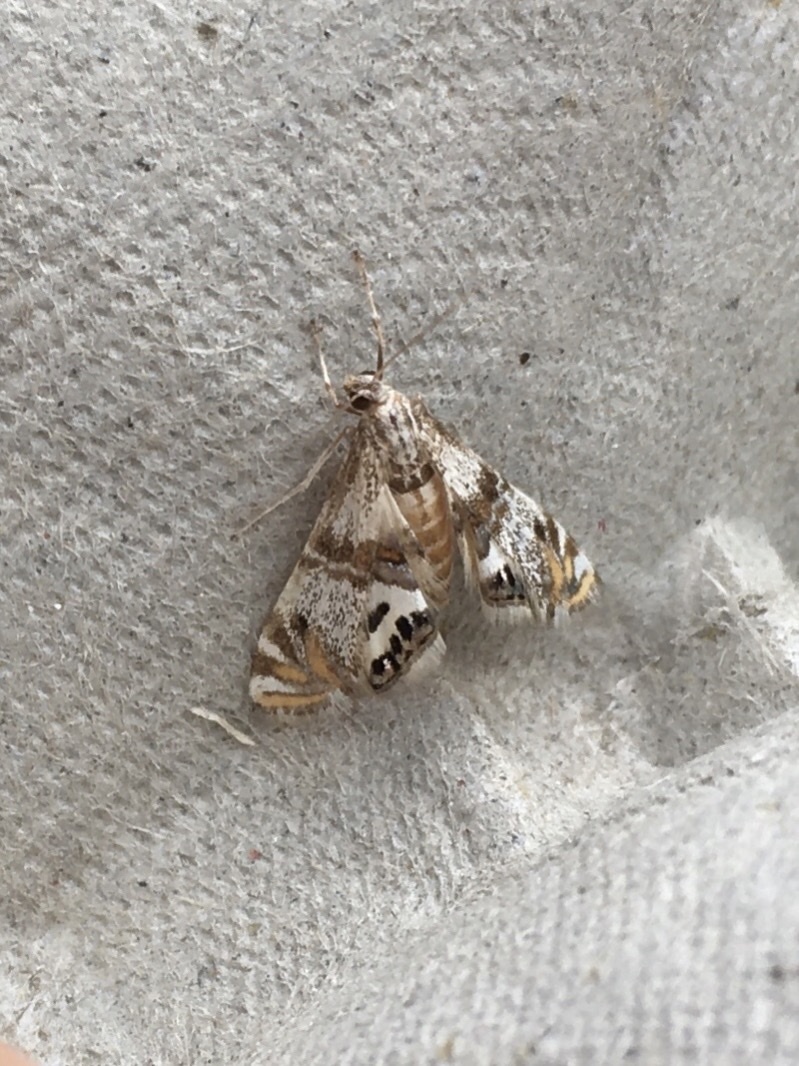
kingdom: Animalia
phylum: Arthropoda
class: Insecta
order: Lepidoptera
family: Crambidae
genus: Petrophila
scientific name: Petrophila bifascialis
